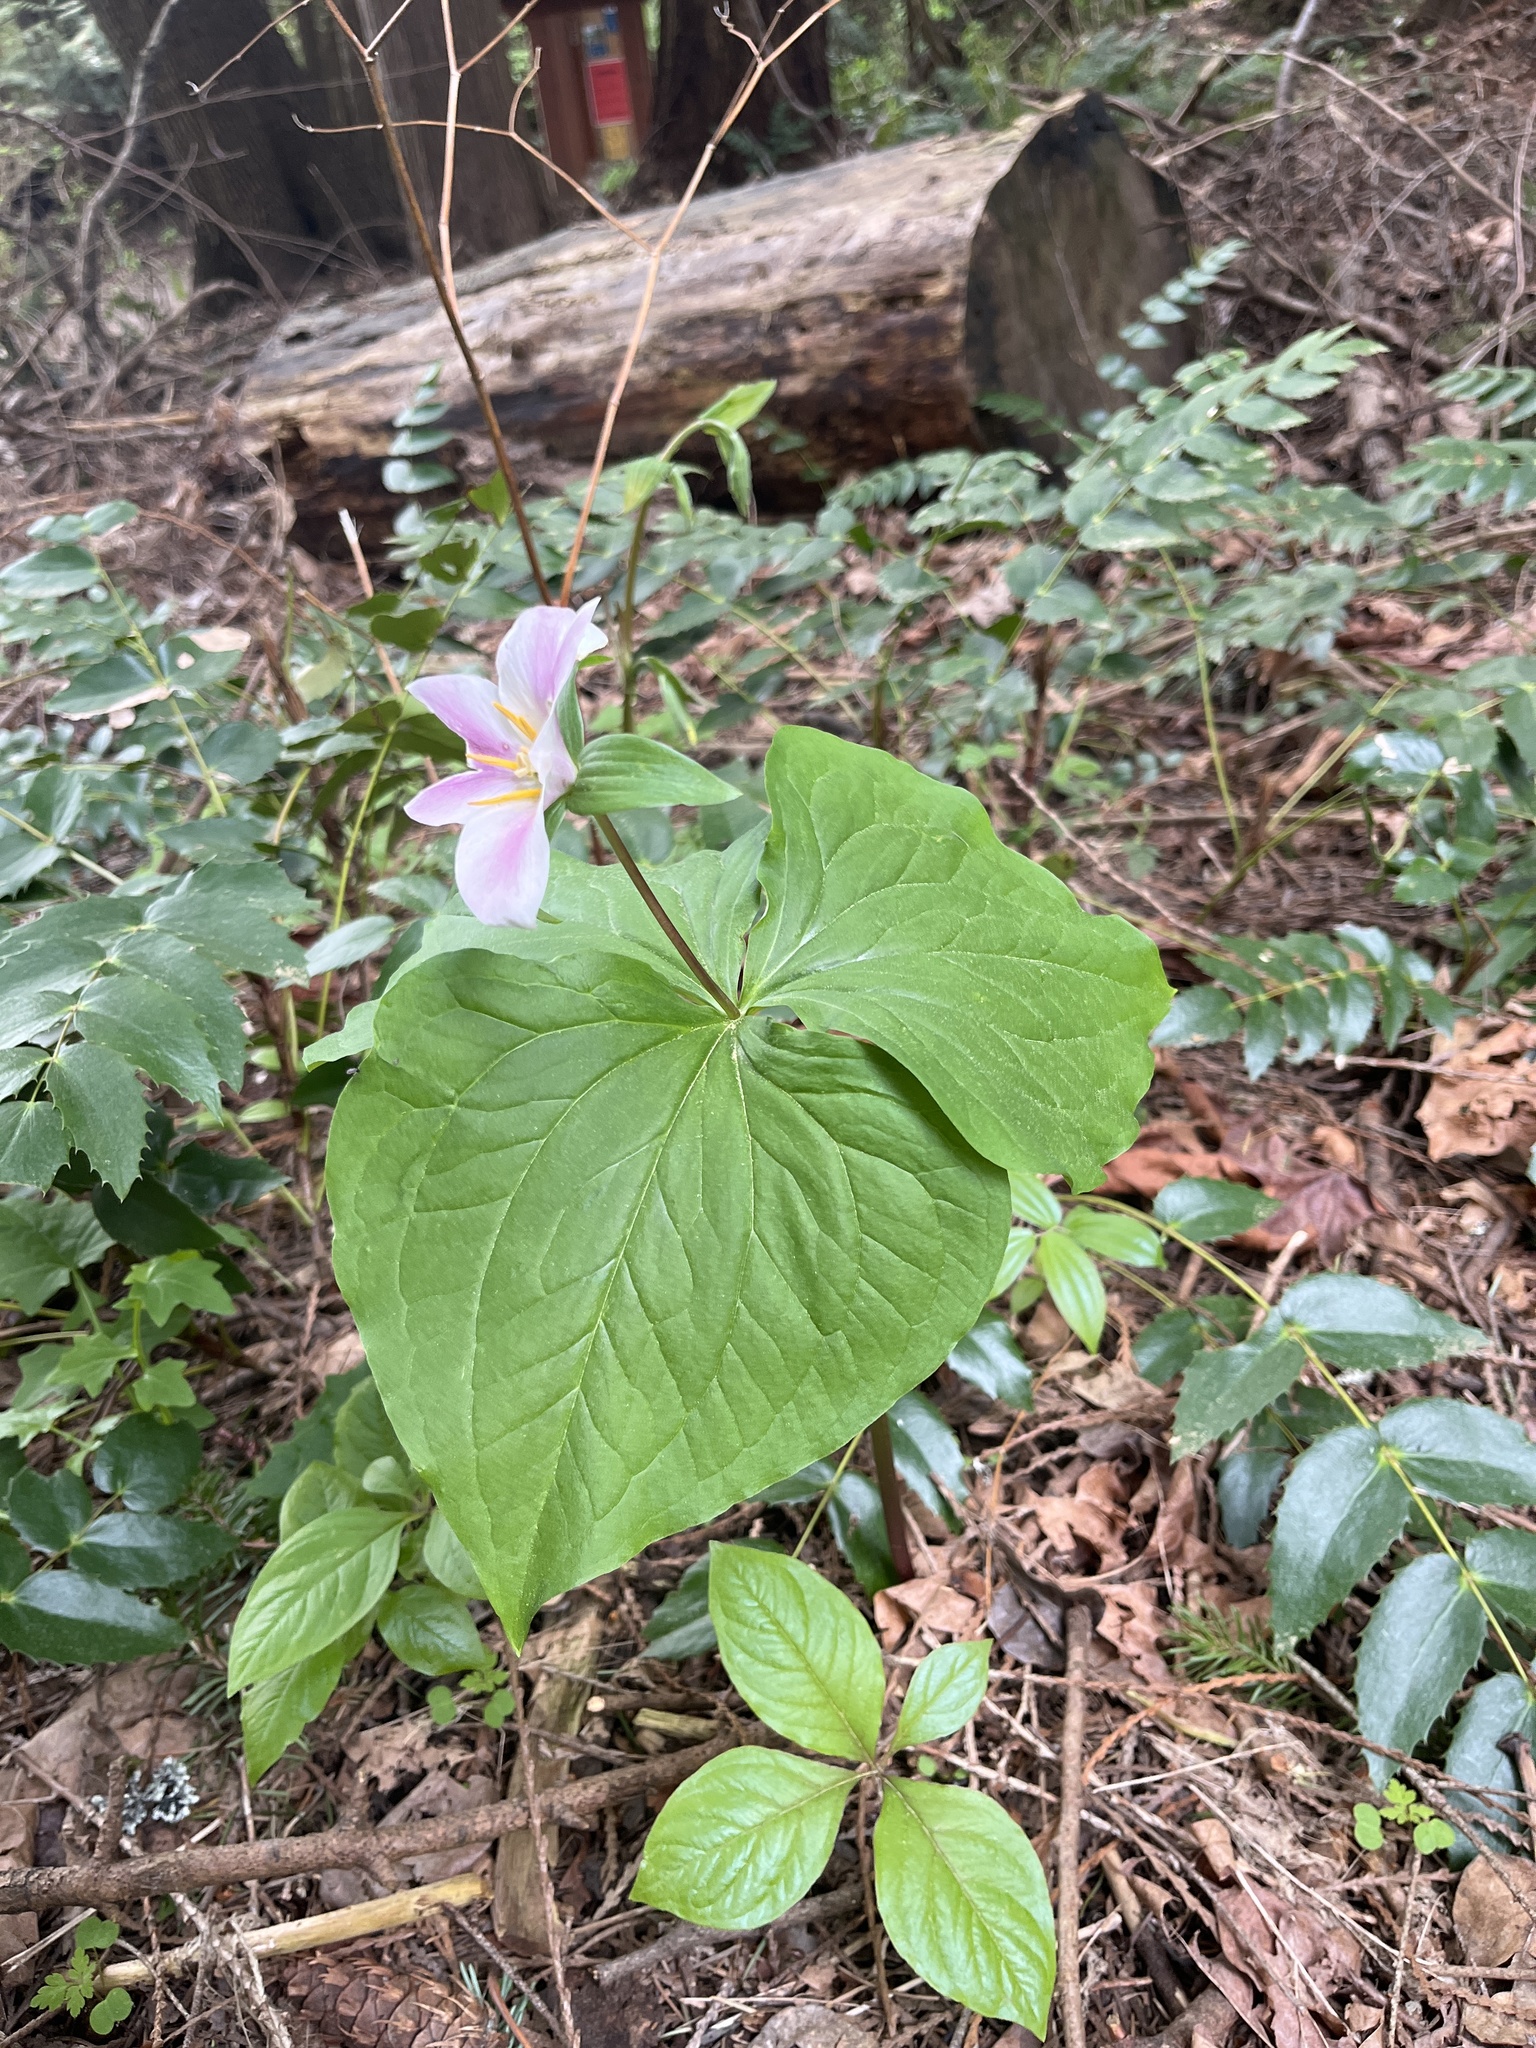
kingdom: Plantae
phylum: Tracheophyta
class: Liliopsida
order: Liliales
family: Melanthiaceae
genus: Trillium
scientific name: Trillium ovatum
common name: Pacific trillium
